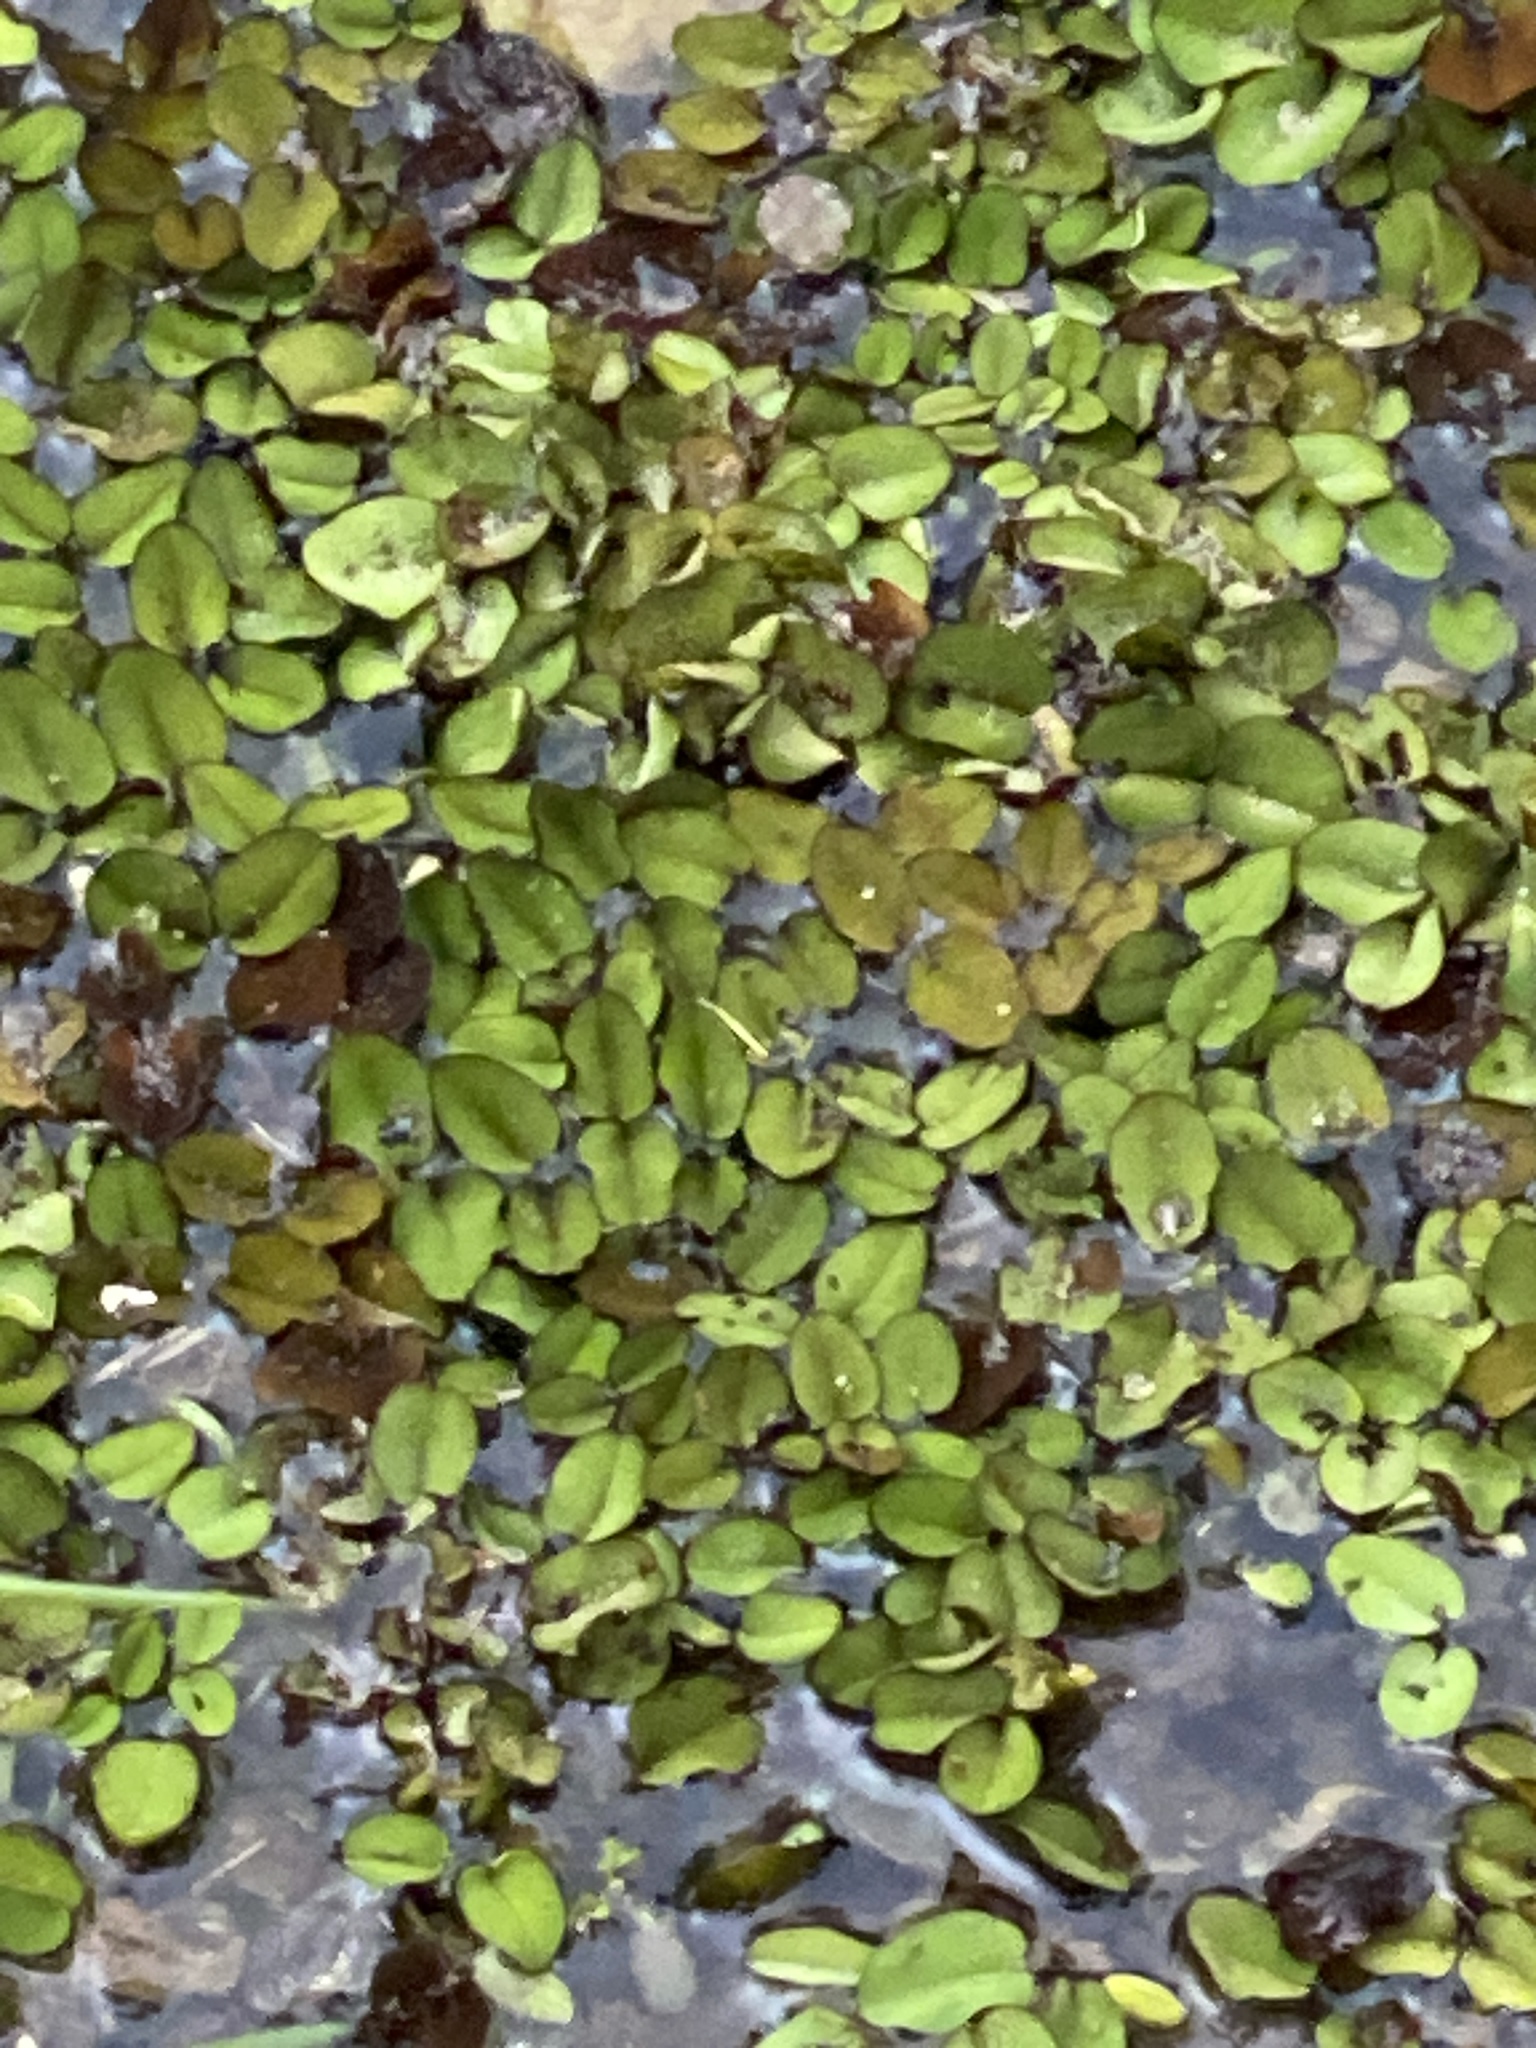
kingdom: Plantae
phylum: Tracheophyta
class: Polypodiopsida
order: Salviniales
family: Salviniaceae
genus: Salvinia
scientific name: Salvinia molesta
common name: Kariba weed
